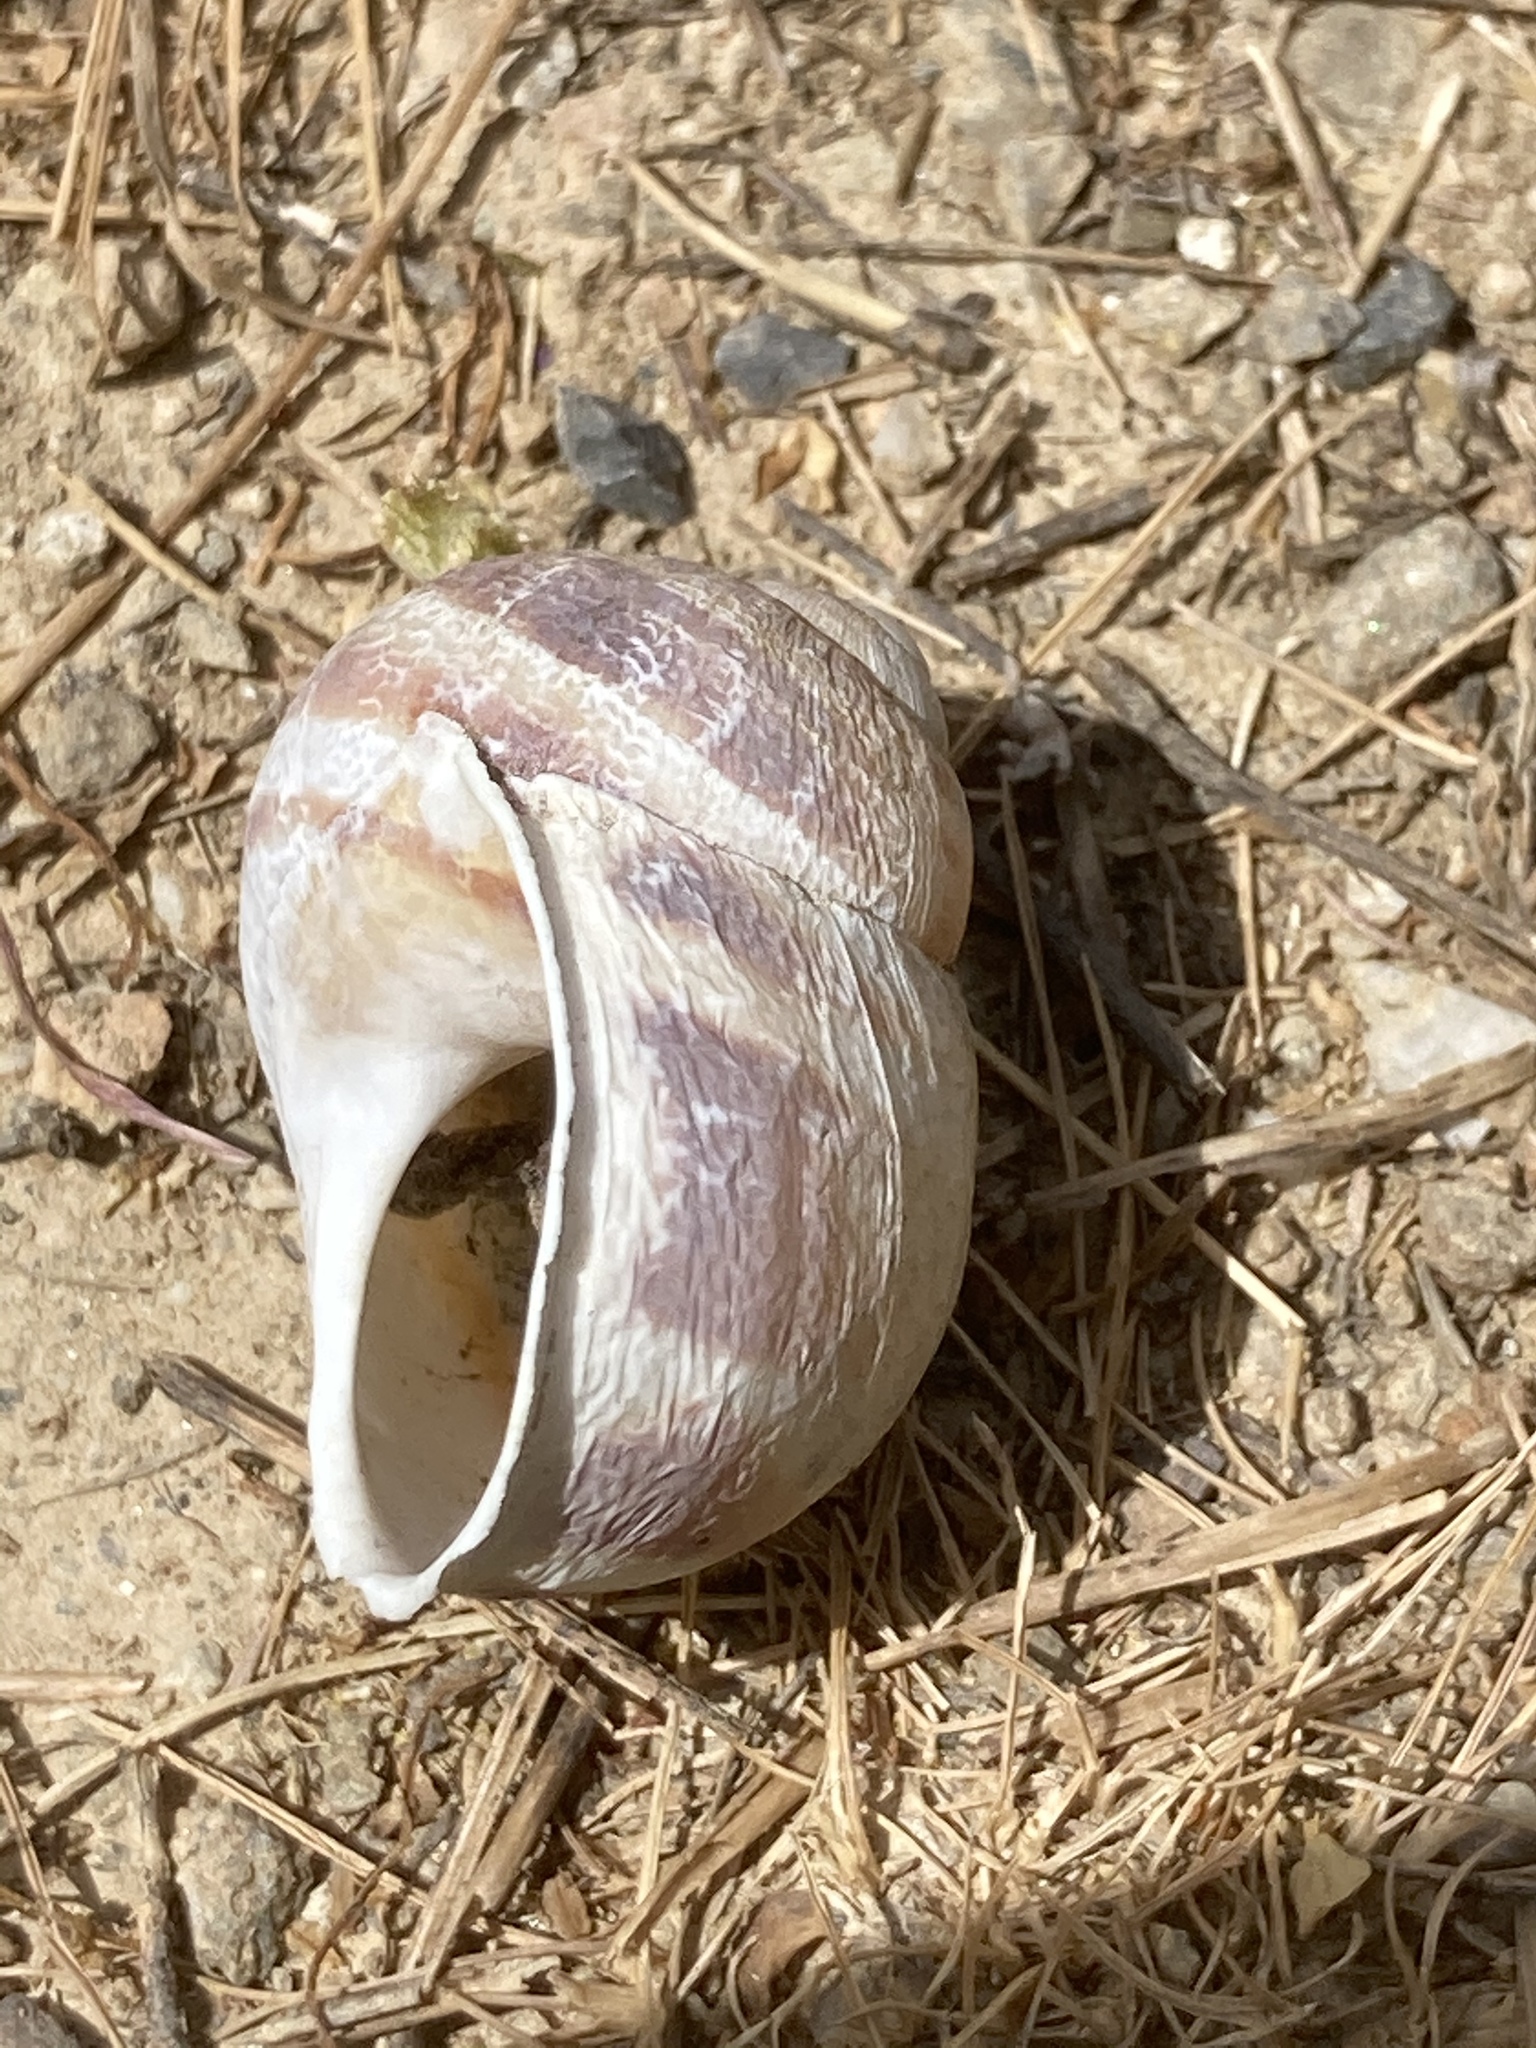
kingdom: Animalia
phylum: Mollusca
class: Gastropoda
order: Stylommatophora
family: Helicidae
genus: Cornu
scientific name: Cornu aspersum
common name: Brown garden snail
